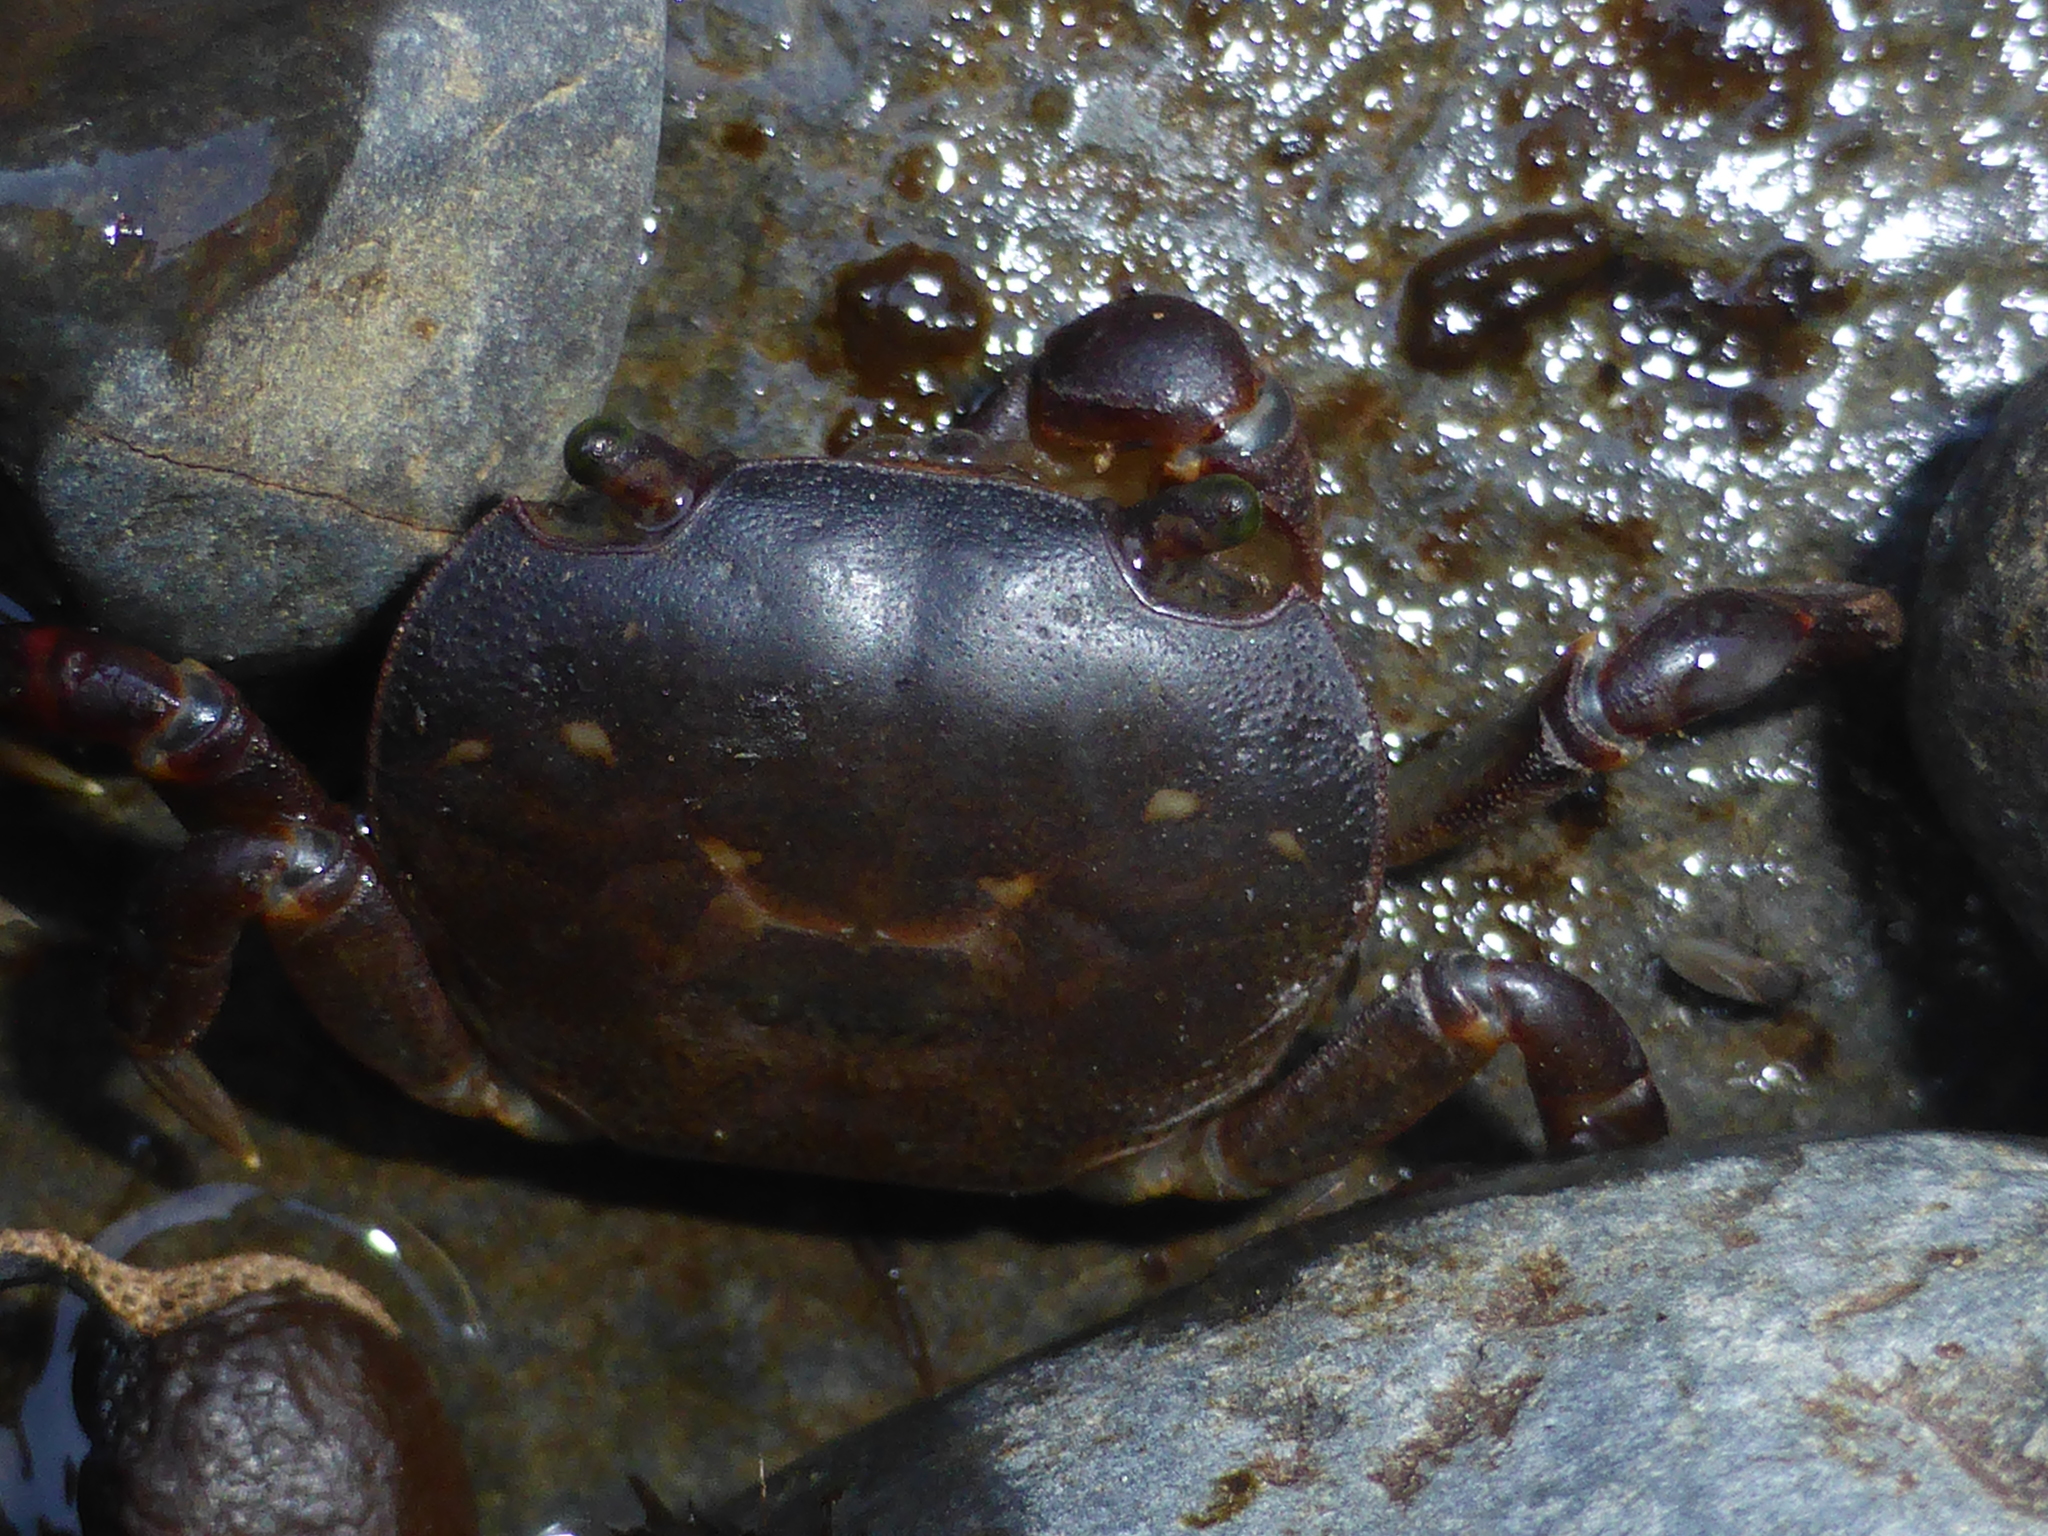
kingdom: Animalia
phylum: Arthropoda
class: Malacostraca
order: Decapoda
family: Varunidae
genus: Cyclograpsus
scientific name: Cyclograpsus lavauxi
